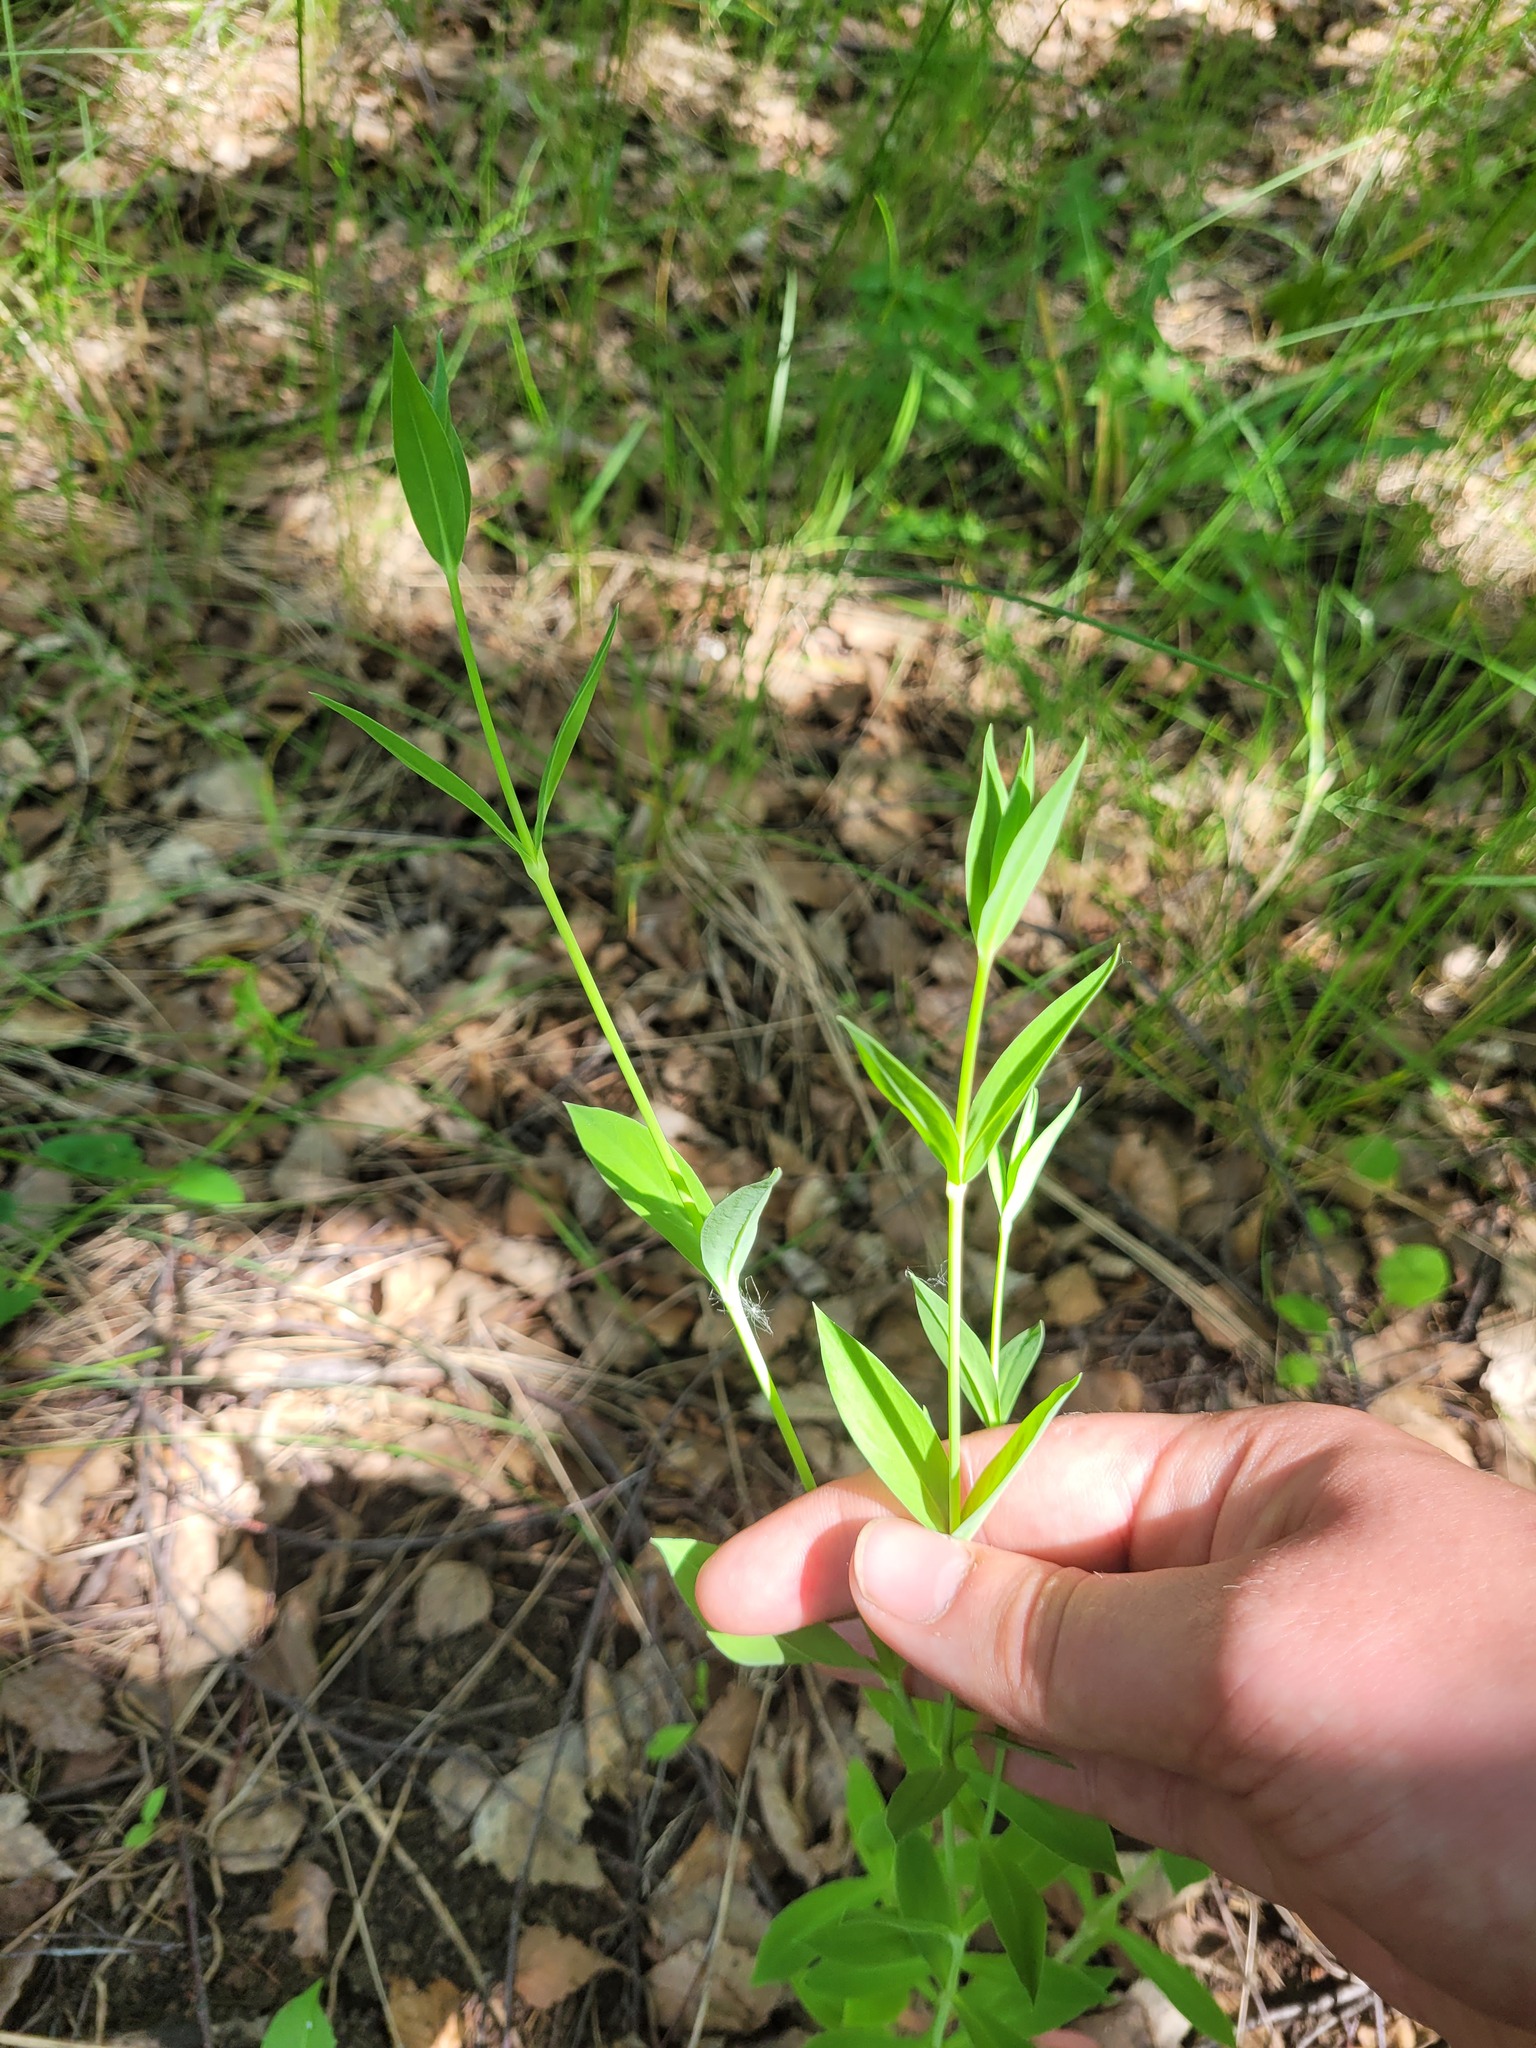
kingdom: Plantae
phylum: Tracheophyta
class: Magnoliopsida
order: Caryophyllales
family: Caryophyllaceae
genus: Silene
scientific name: Silene vulgaris
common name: Bladder campion
